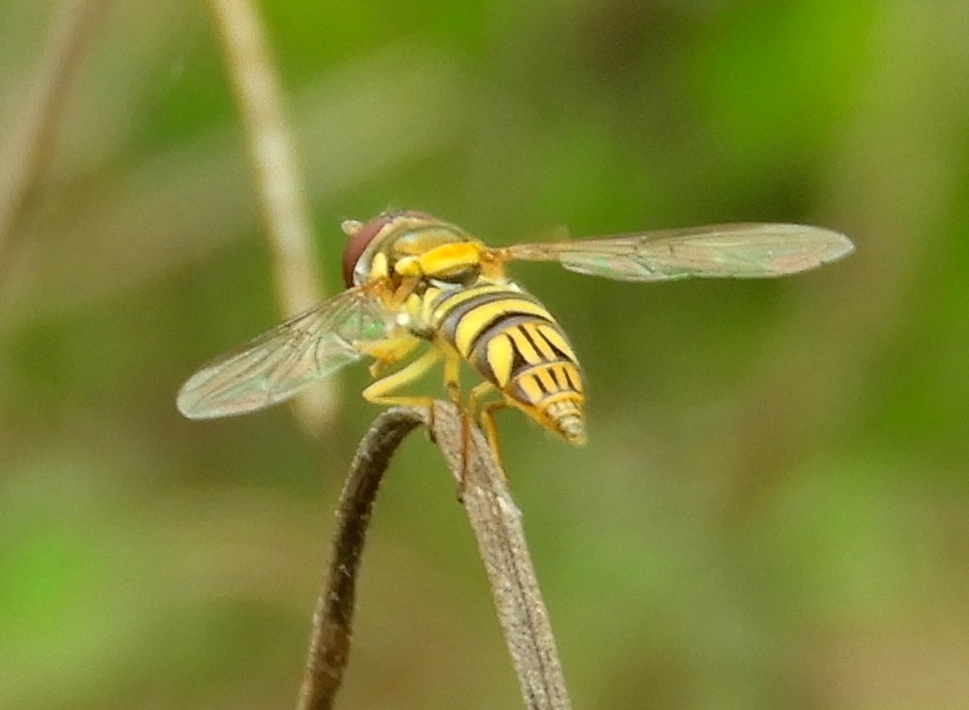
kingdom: Animalia
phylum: Arthropoda
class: Insecta
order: Diptera
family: Syrphidae
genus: Allograpta
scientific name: Allograpta
